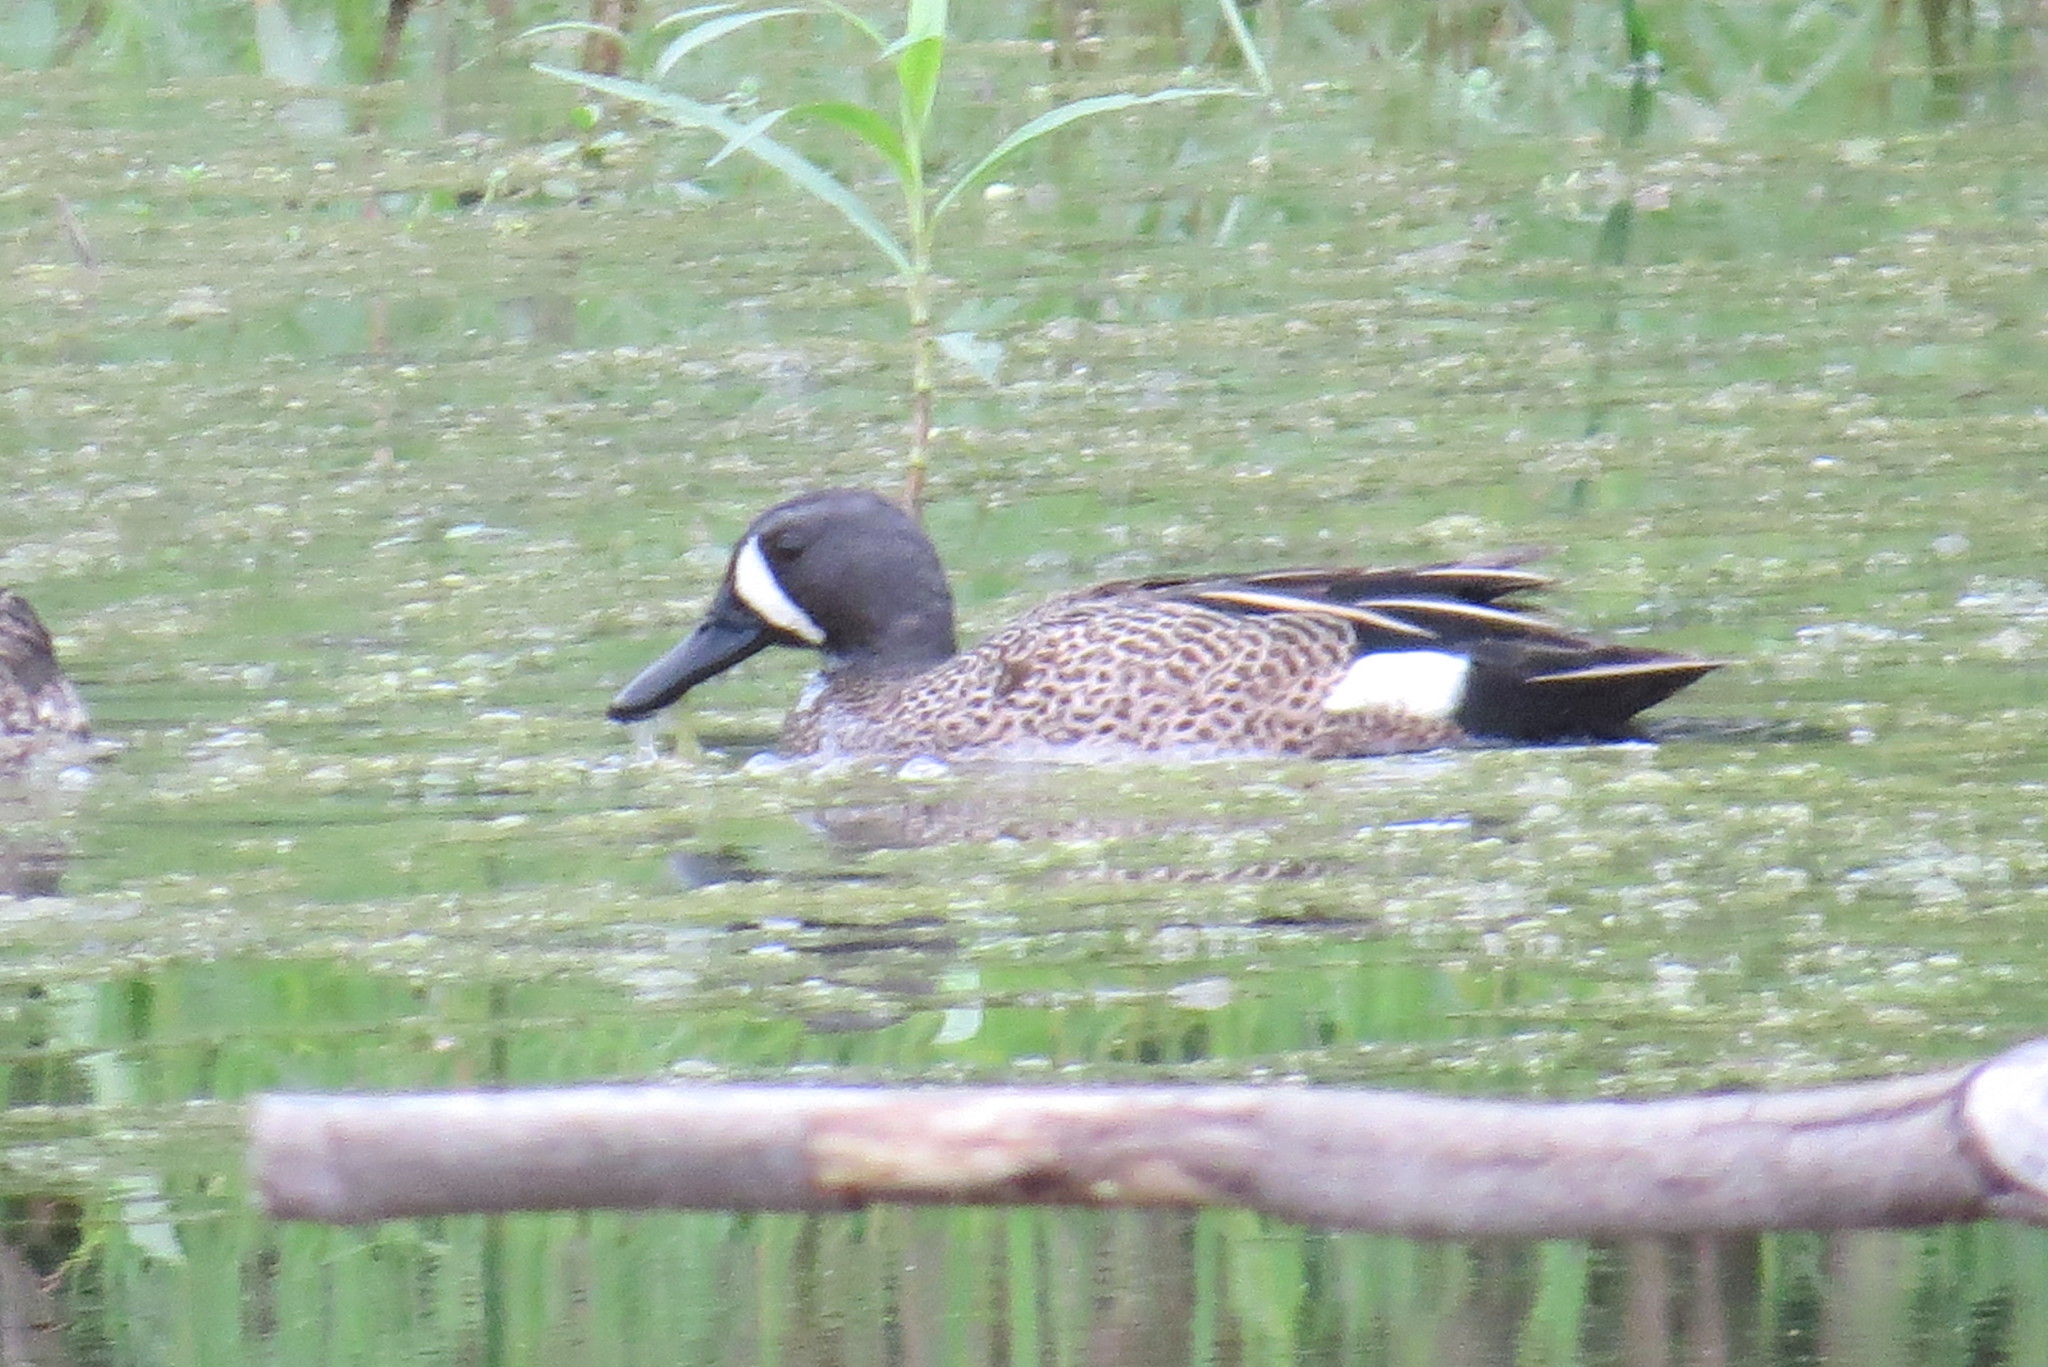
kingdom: Animalia
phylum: Chordata
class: Aves
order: Anseriformes
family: Anatidae
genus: Spatula
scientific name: Spatula discors
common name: Blue-winged teal
